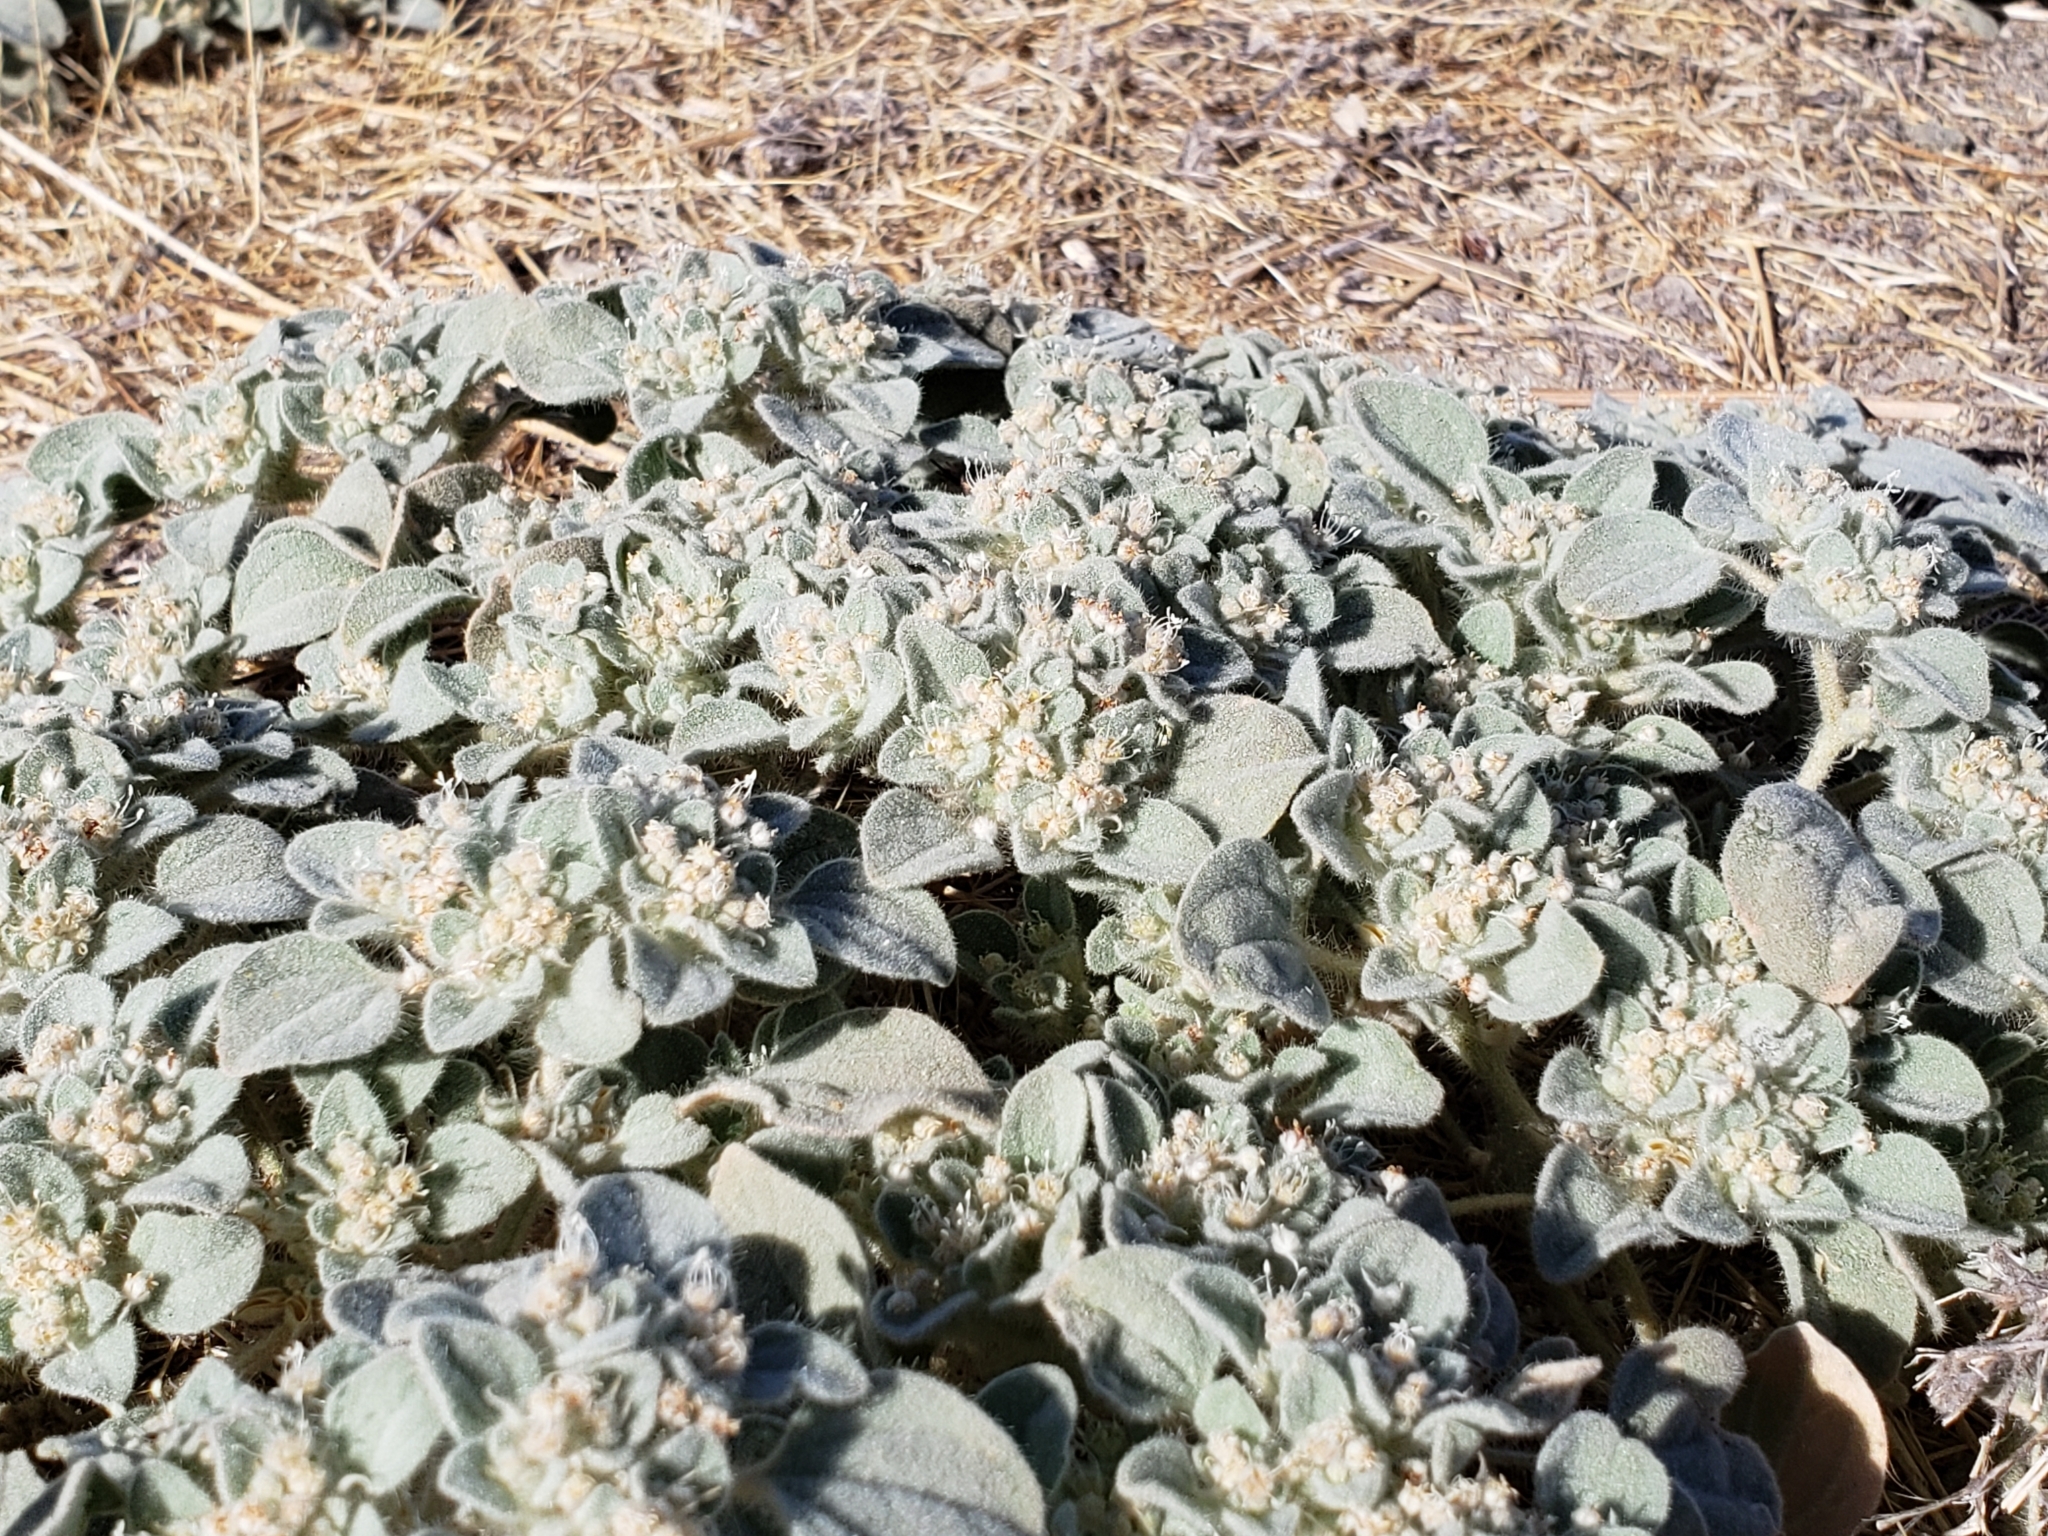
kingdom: Plantae
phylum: Tracheophyta
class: Magnoliopsida
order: Malpighiales
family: Euphorbiaceae
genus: Croton
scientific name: Croton setiger
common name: Dove weed
